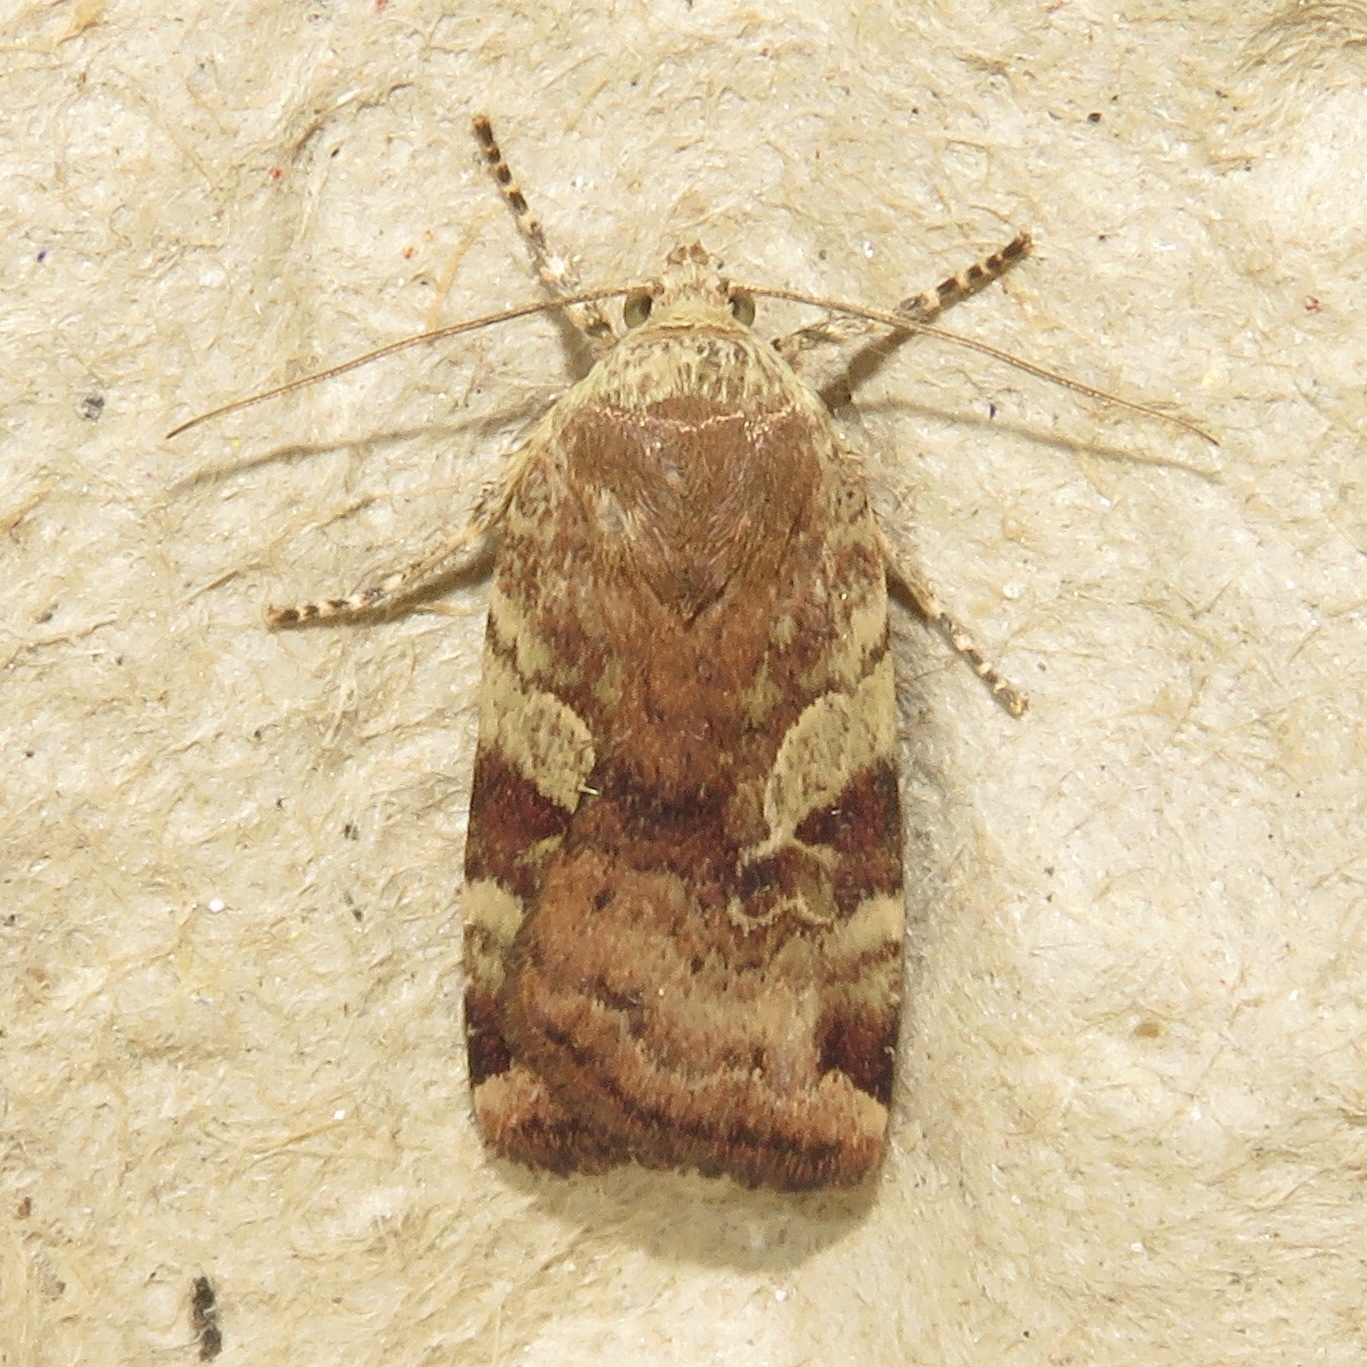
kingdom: Animalia
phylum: Arthropoda
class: Insecta
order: Lepidoptera
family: Noctuidae
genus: Cryptocala
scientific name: Cryptocala acadiensis
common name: Catocaline dart
